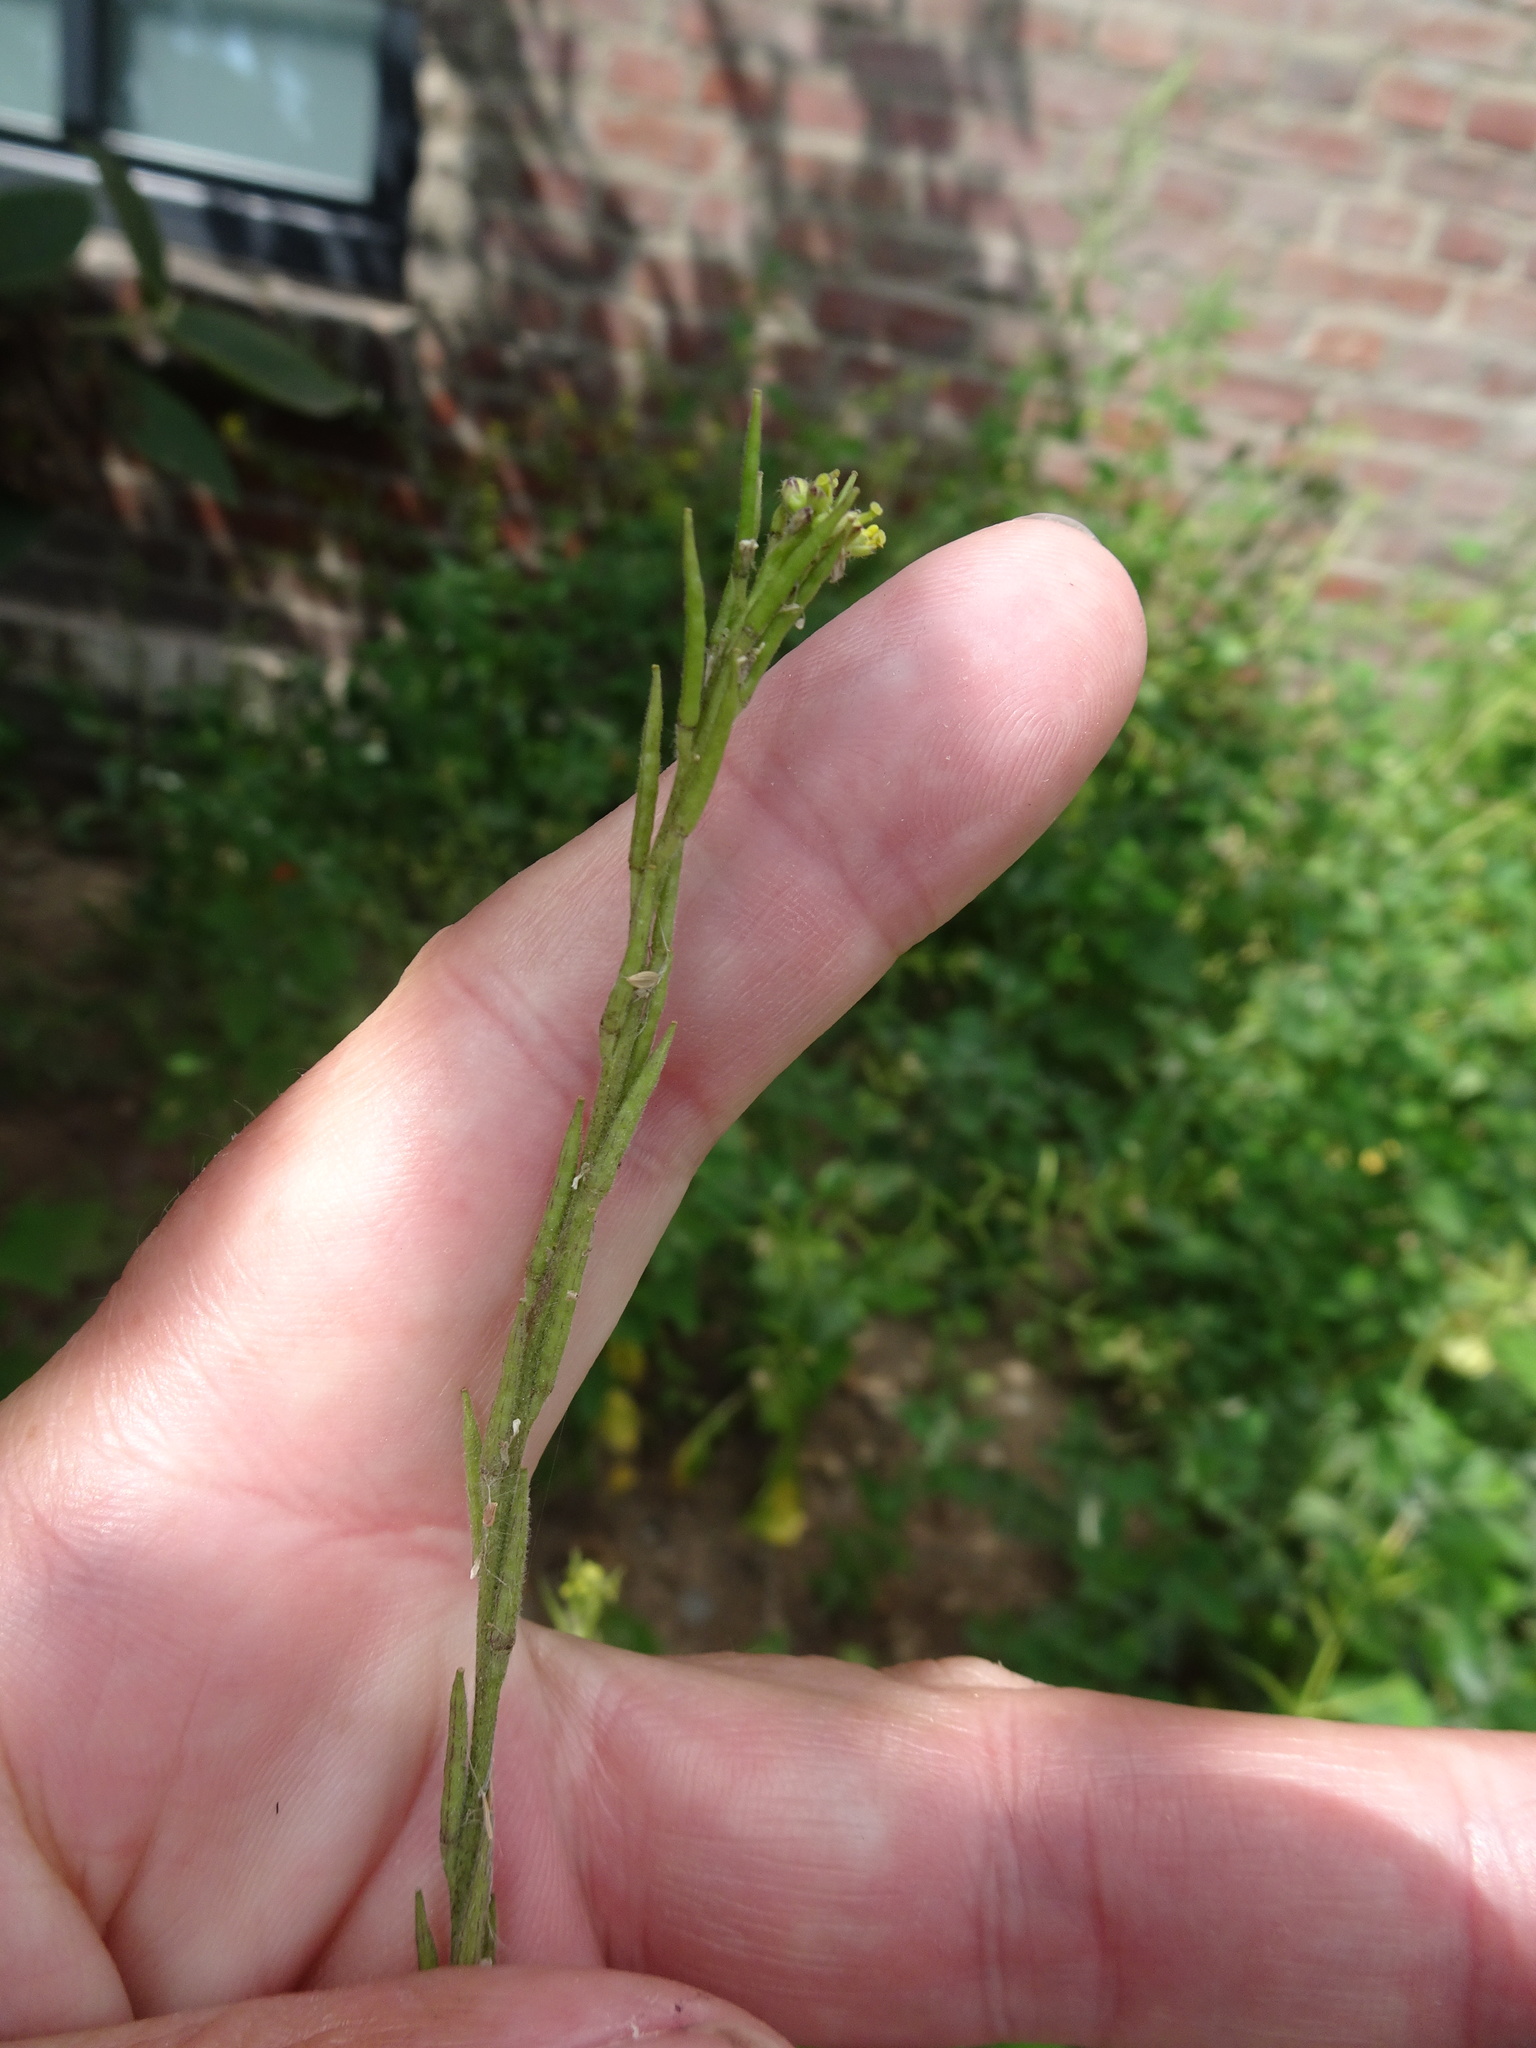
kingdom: Plantae
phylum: Tracheophyta
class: Magnoliopsida
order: Brassicales
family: Brassicaceae
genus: Sisymbrium
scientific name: Sisymbrium officinale
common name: Hedge mustard
